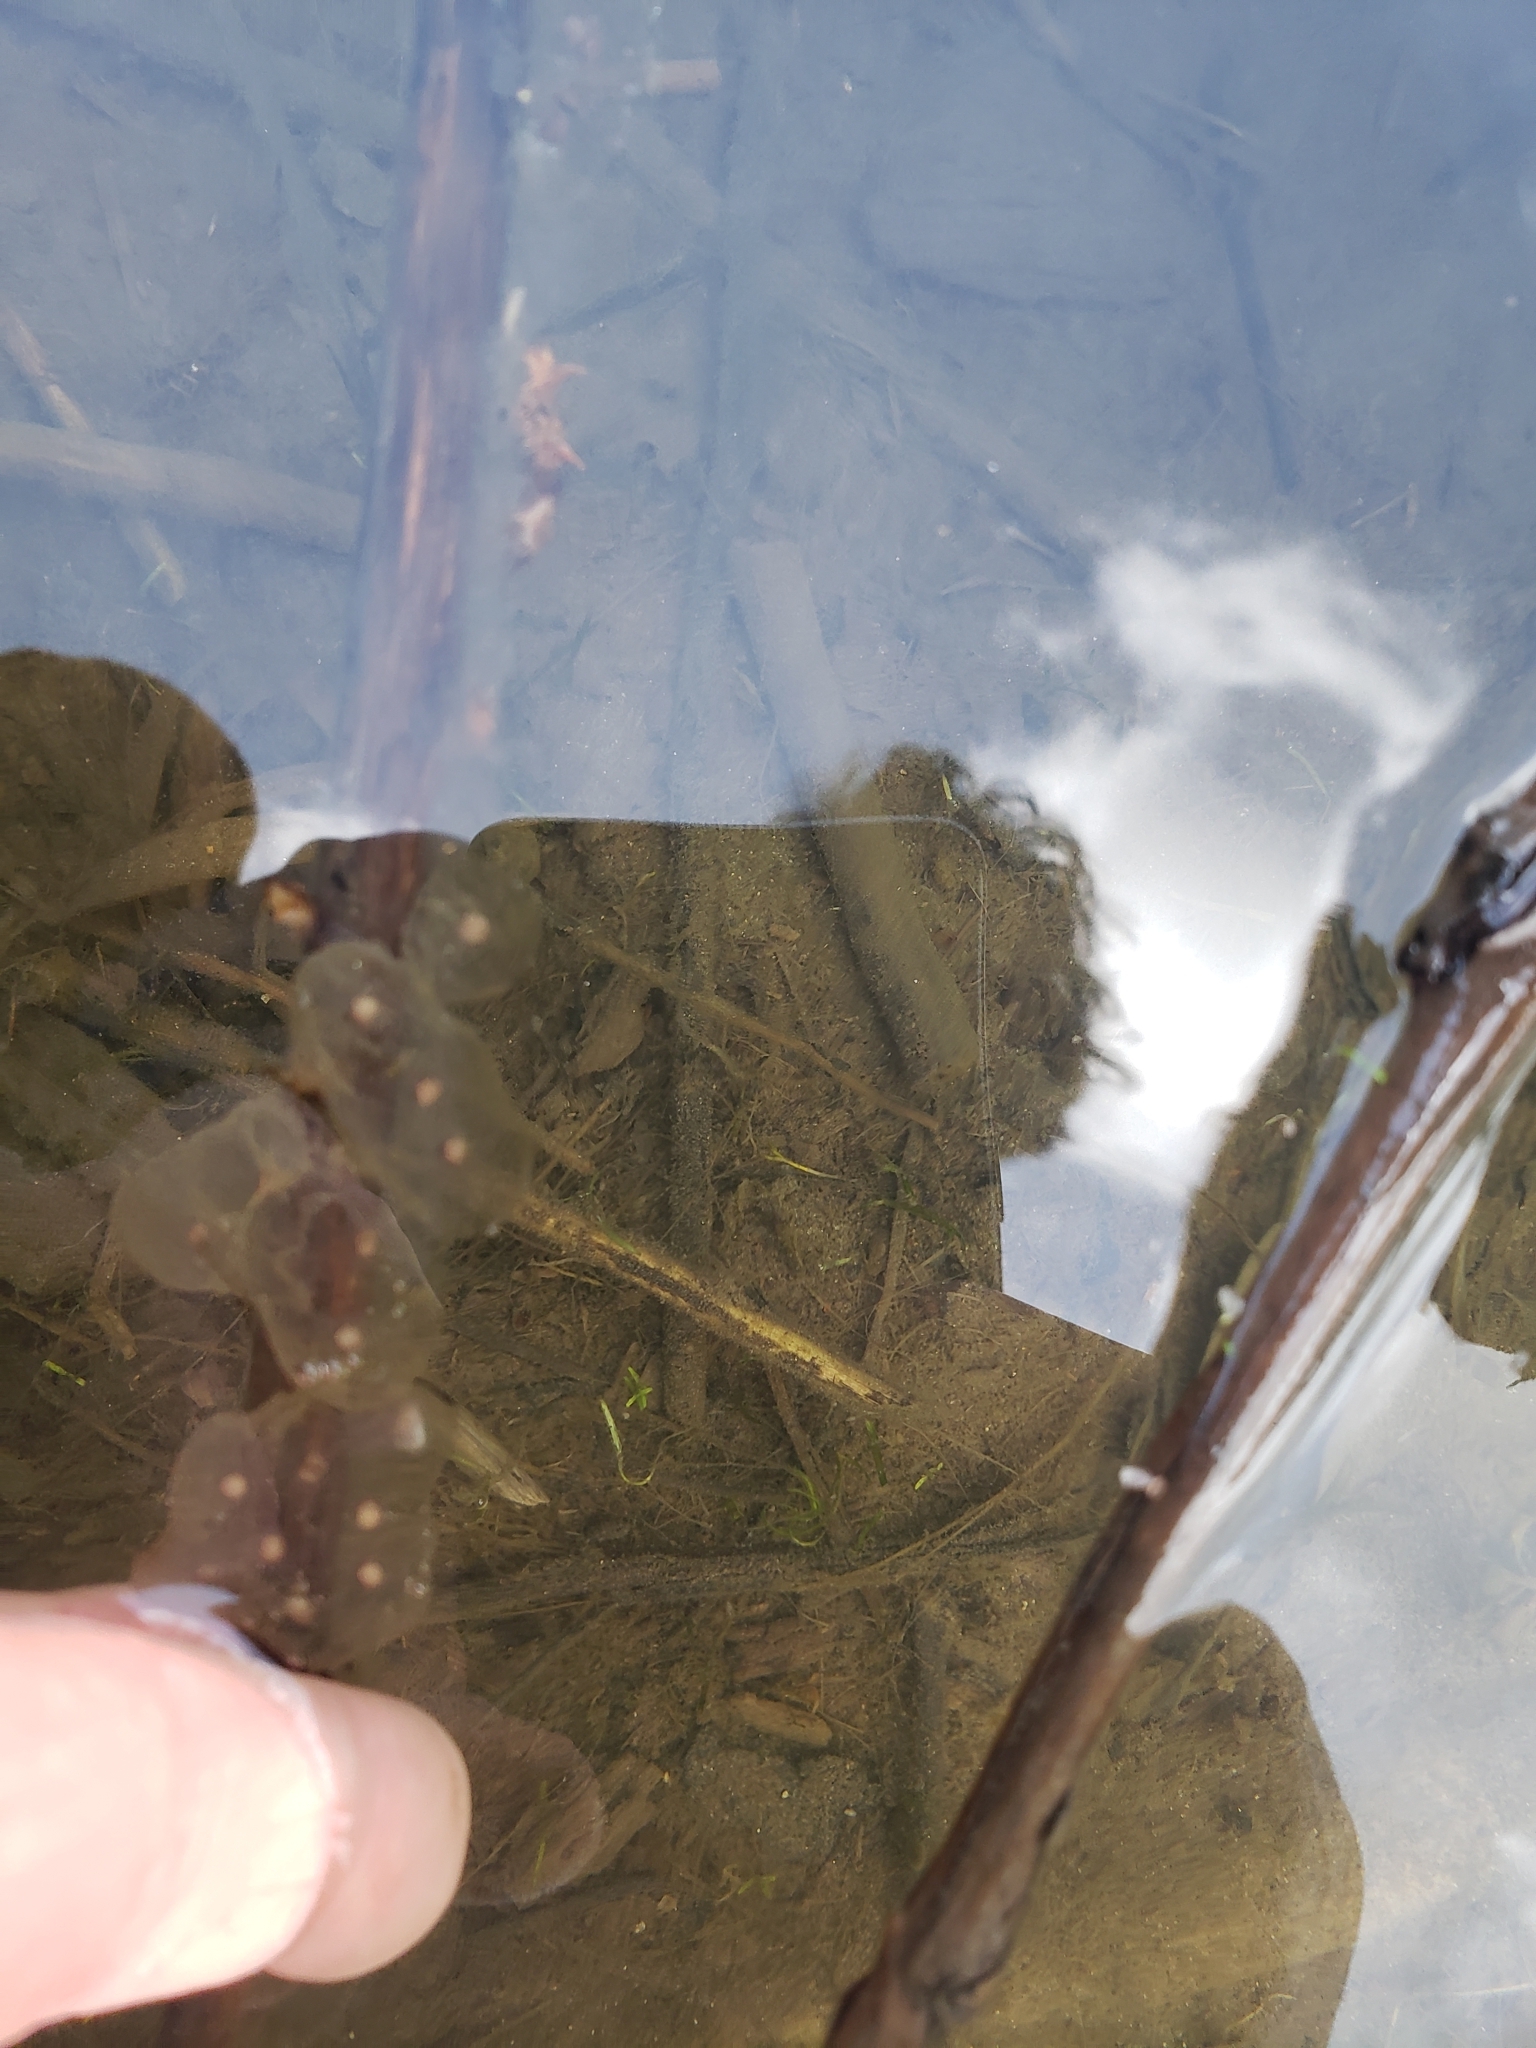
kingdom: Animalia
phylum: Chordata
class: Amphibia
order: Caudata
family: Ambystomatidae
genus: Ambystoma
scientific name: Ambystoma macrodactylum
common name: Long-toed salamander
